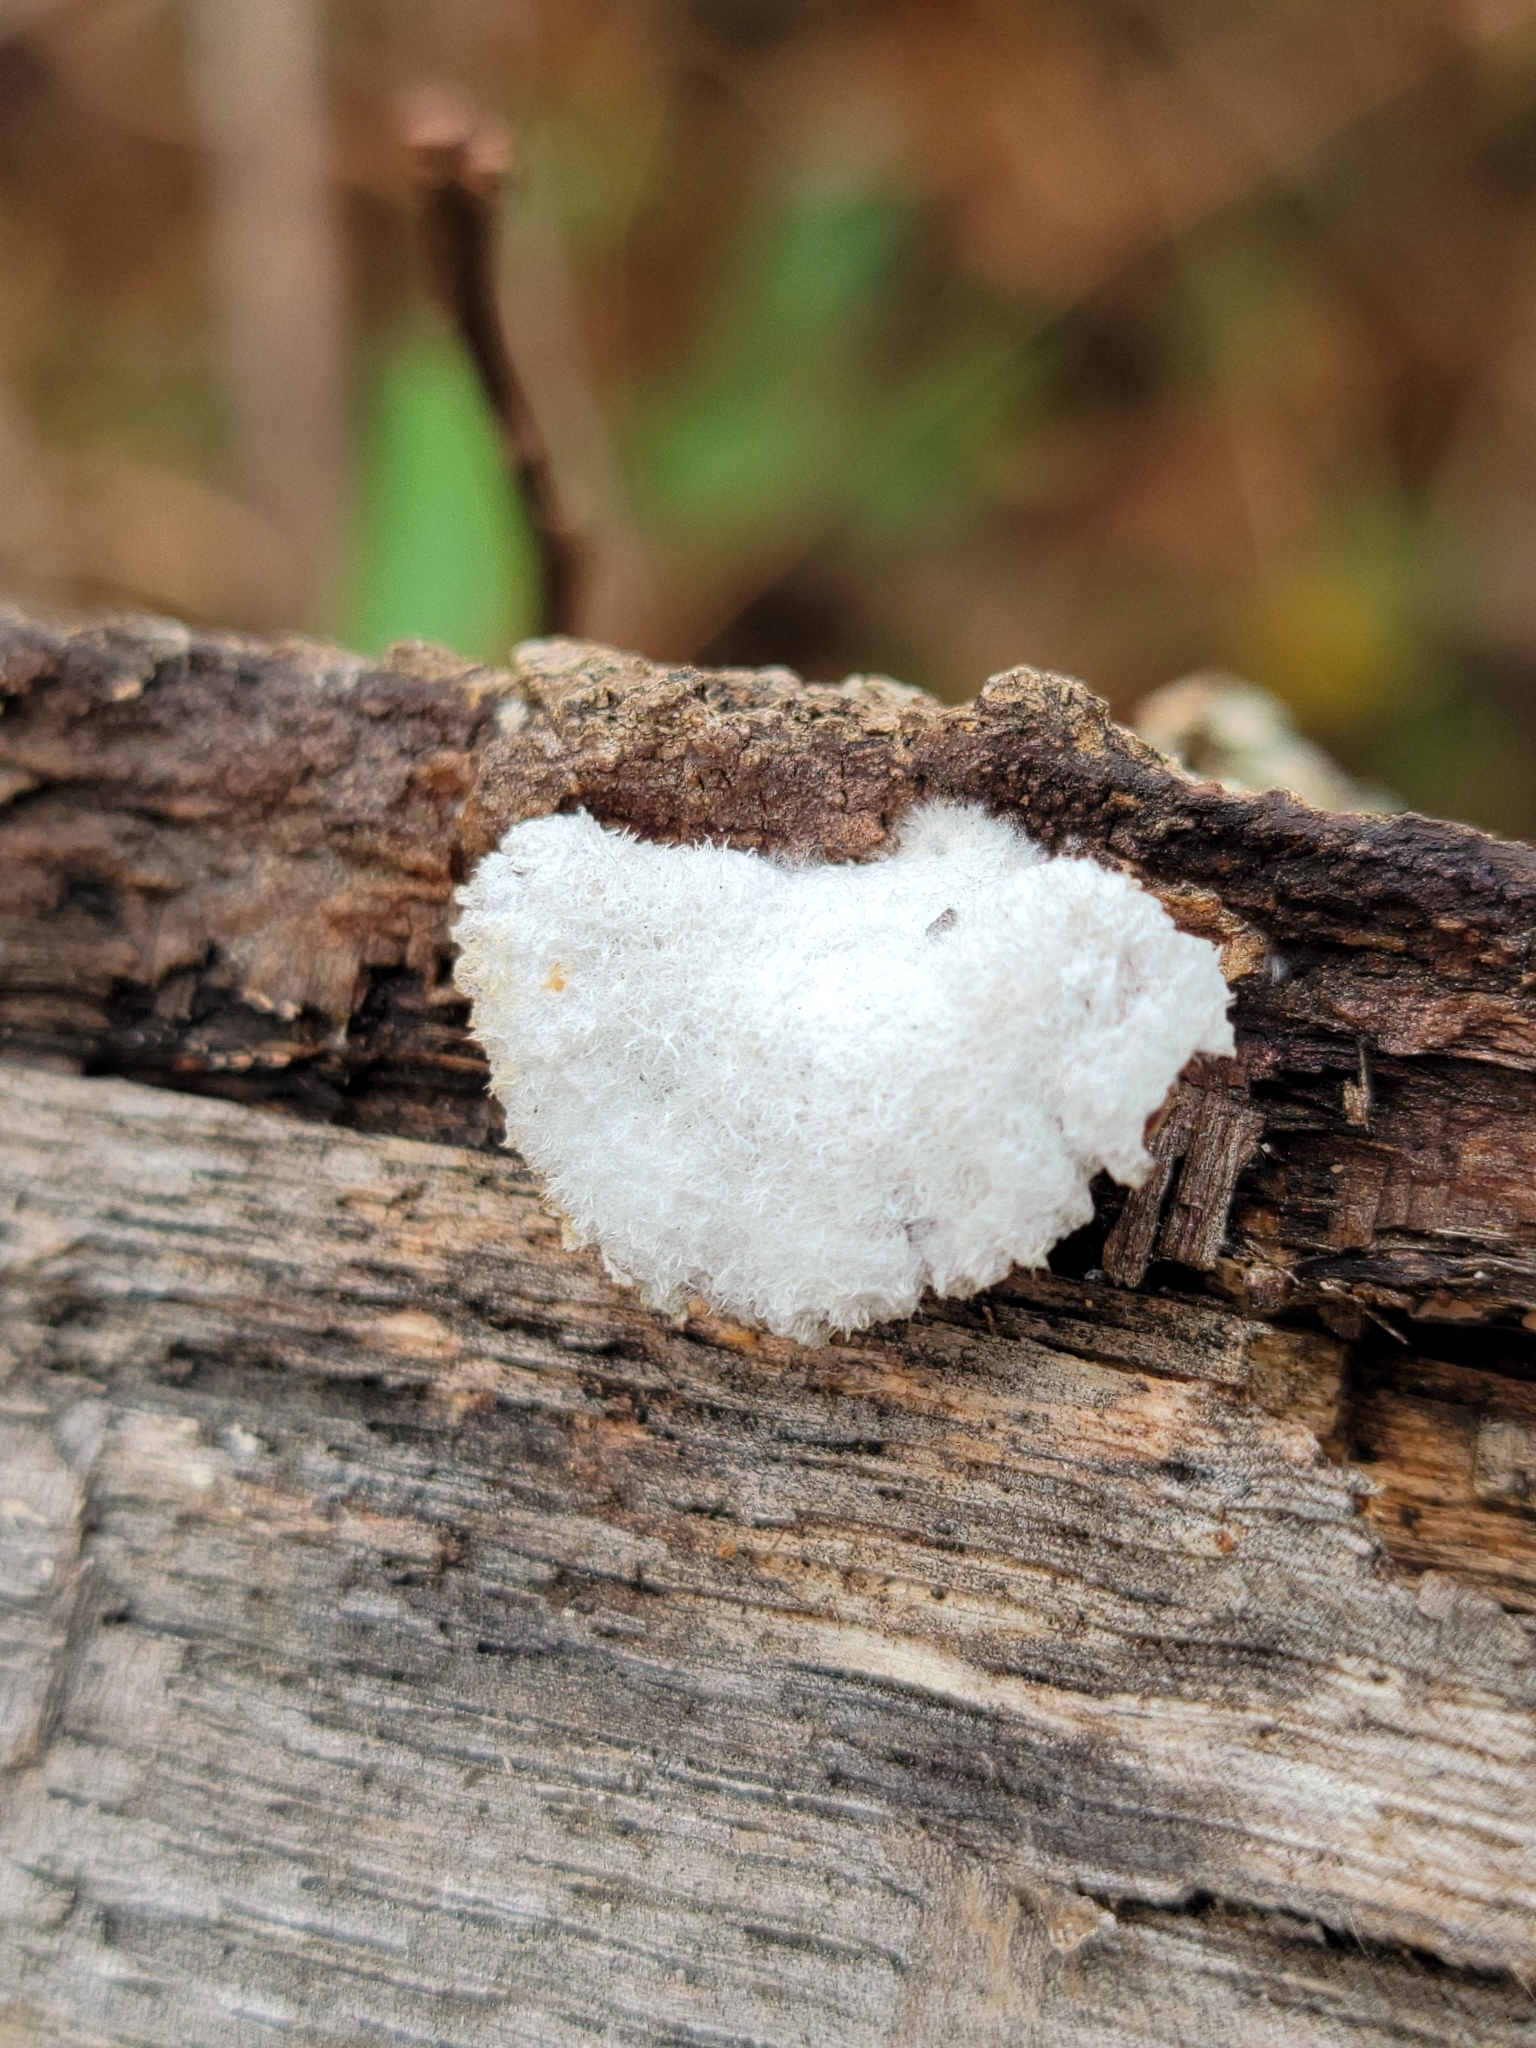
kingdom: Fungi
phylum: Basidiomycota
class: Agaricomycetes
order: Agaricales
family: Schizophyllaceae
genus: Schizophyllum
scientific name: Schizophyllum commune
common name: Common porecrust
